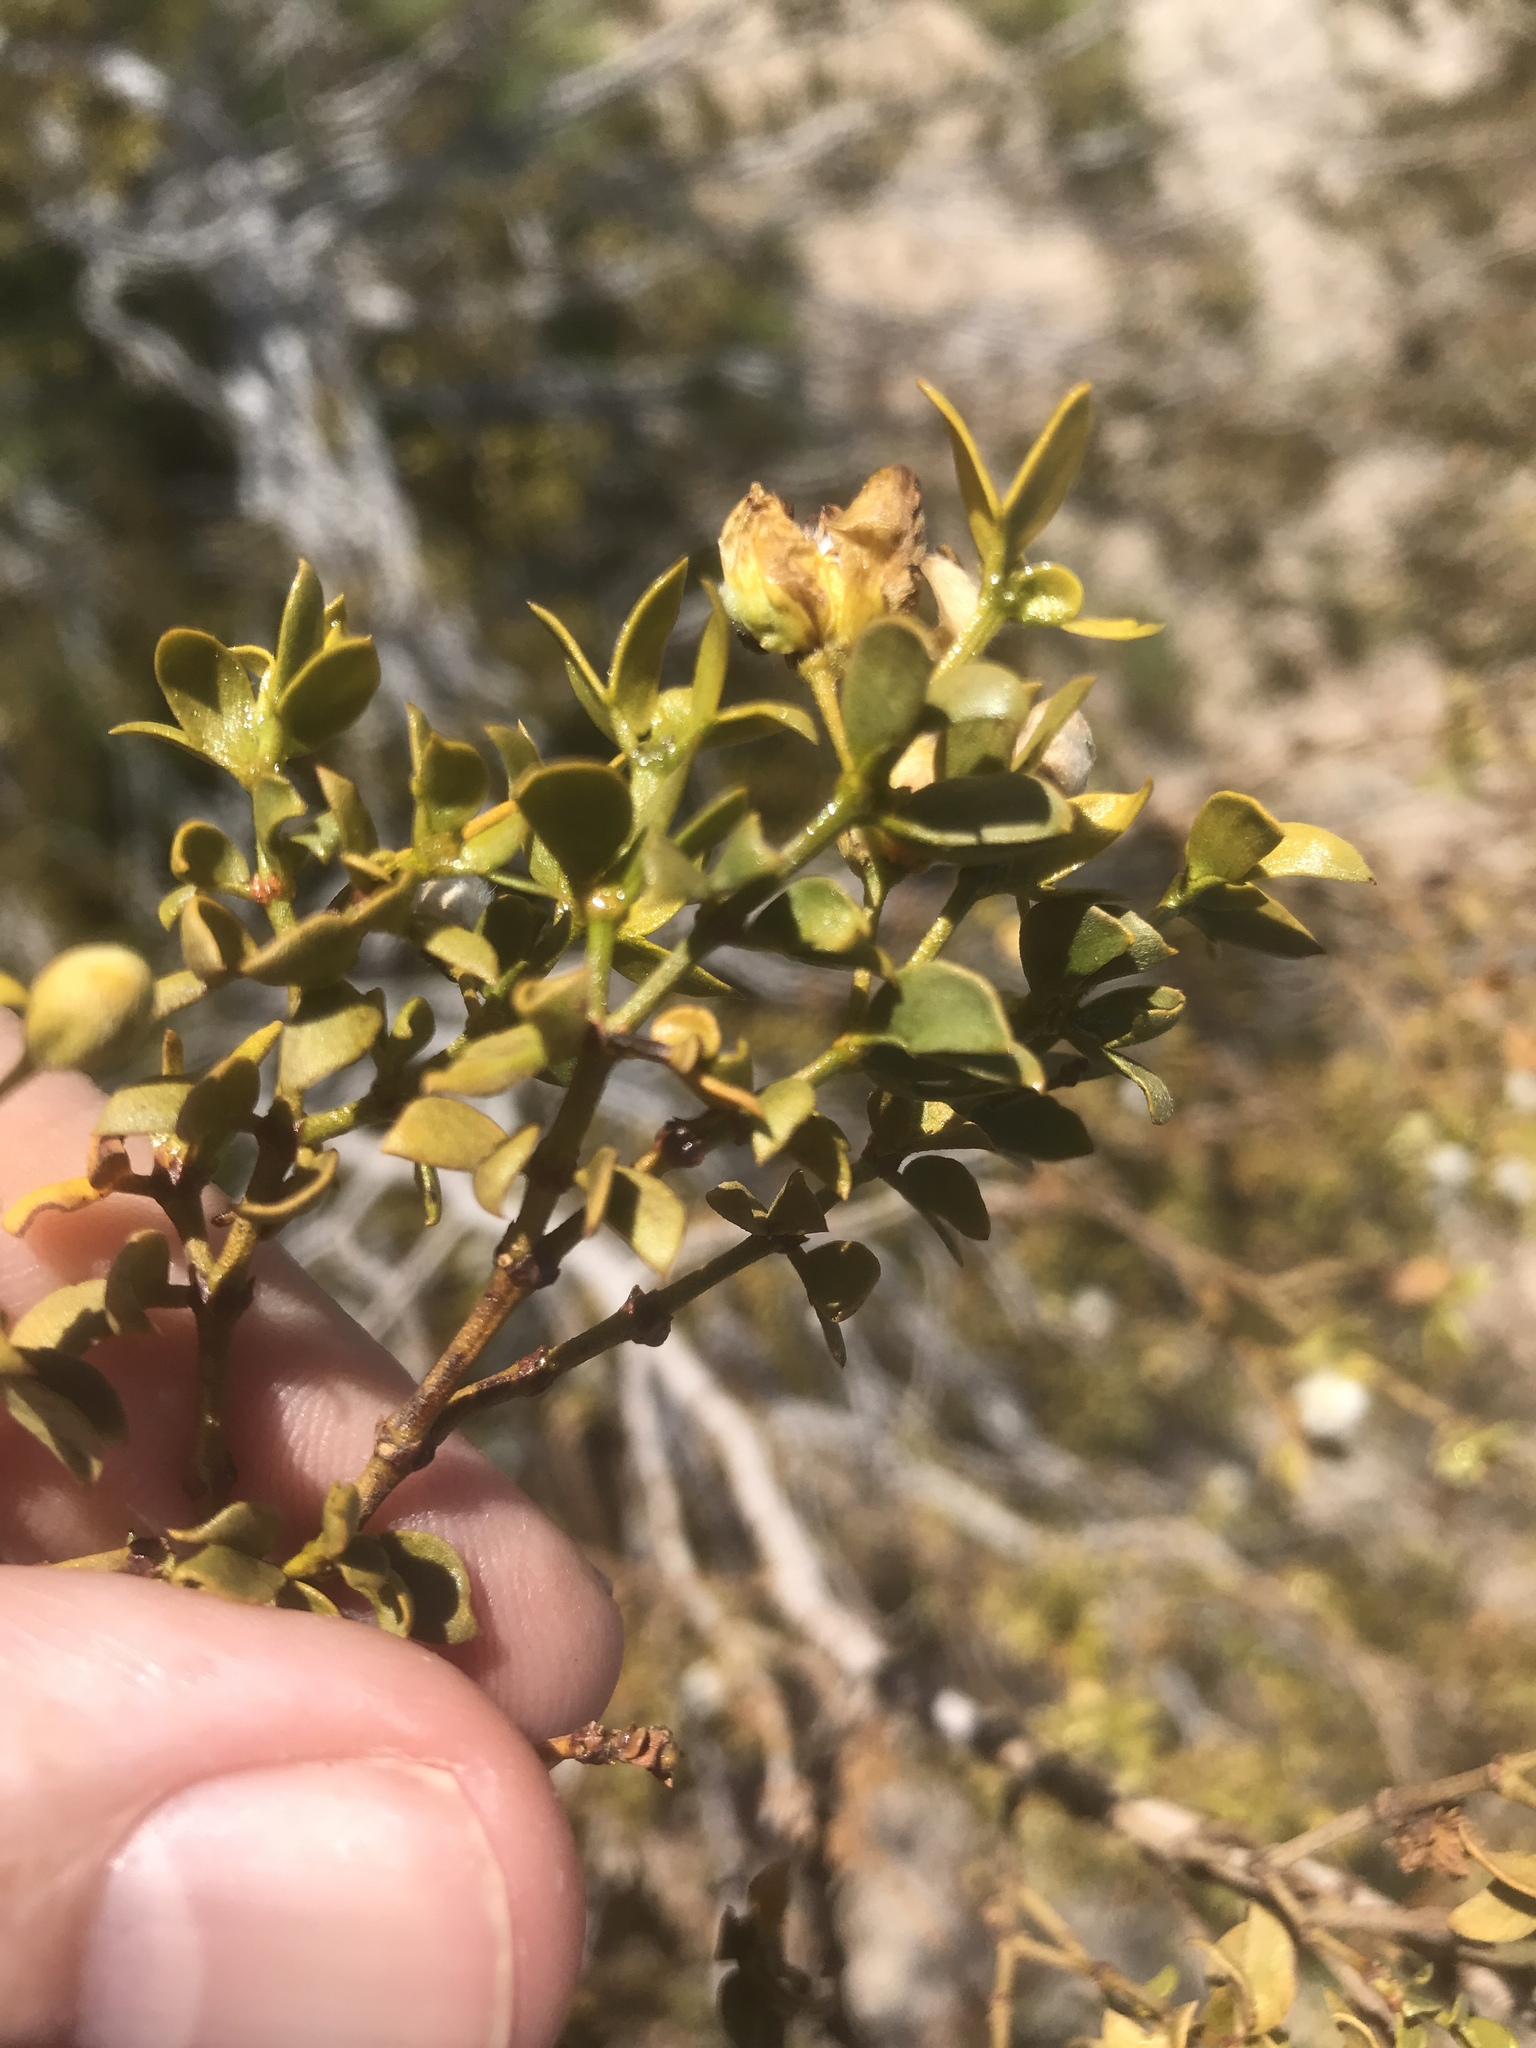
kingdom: Plantae
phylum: Tracheophyta
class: Magnoliopsida
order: Zygophyllales
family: Zygophyllaceae
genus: Larrea
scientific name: Larrea tridentata
